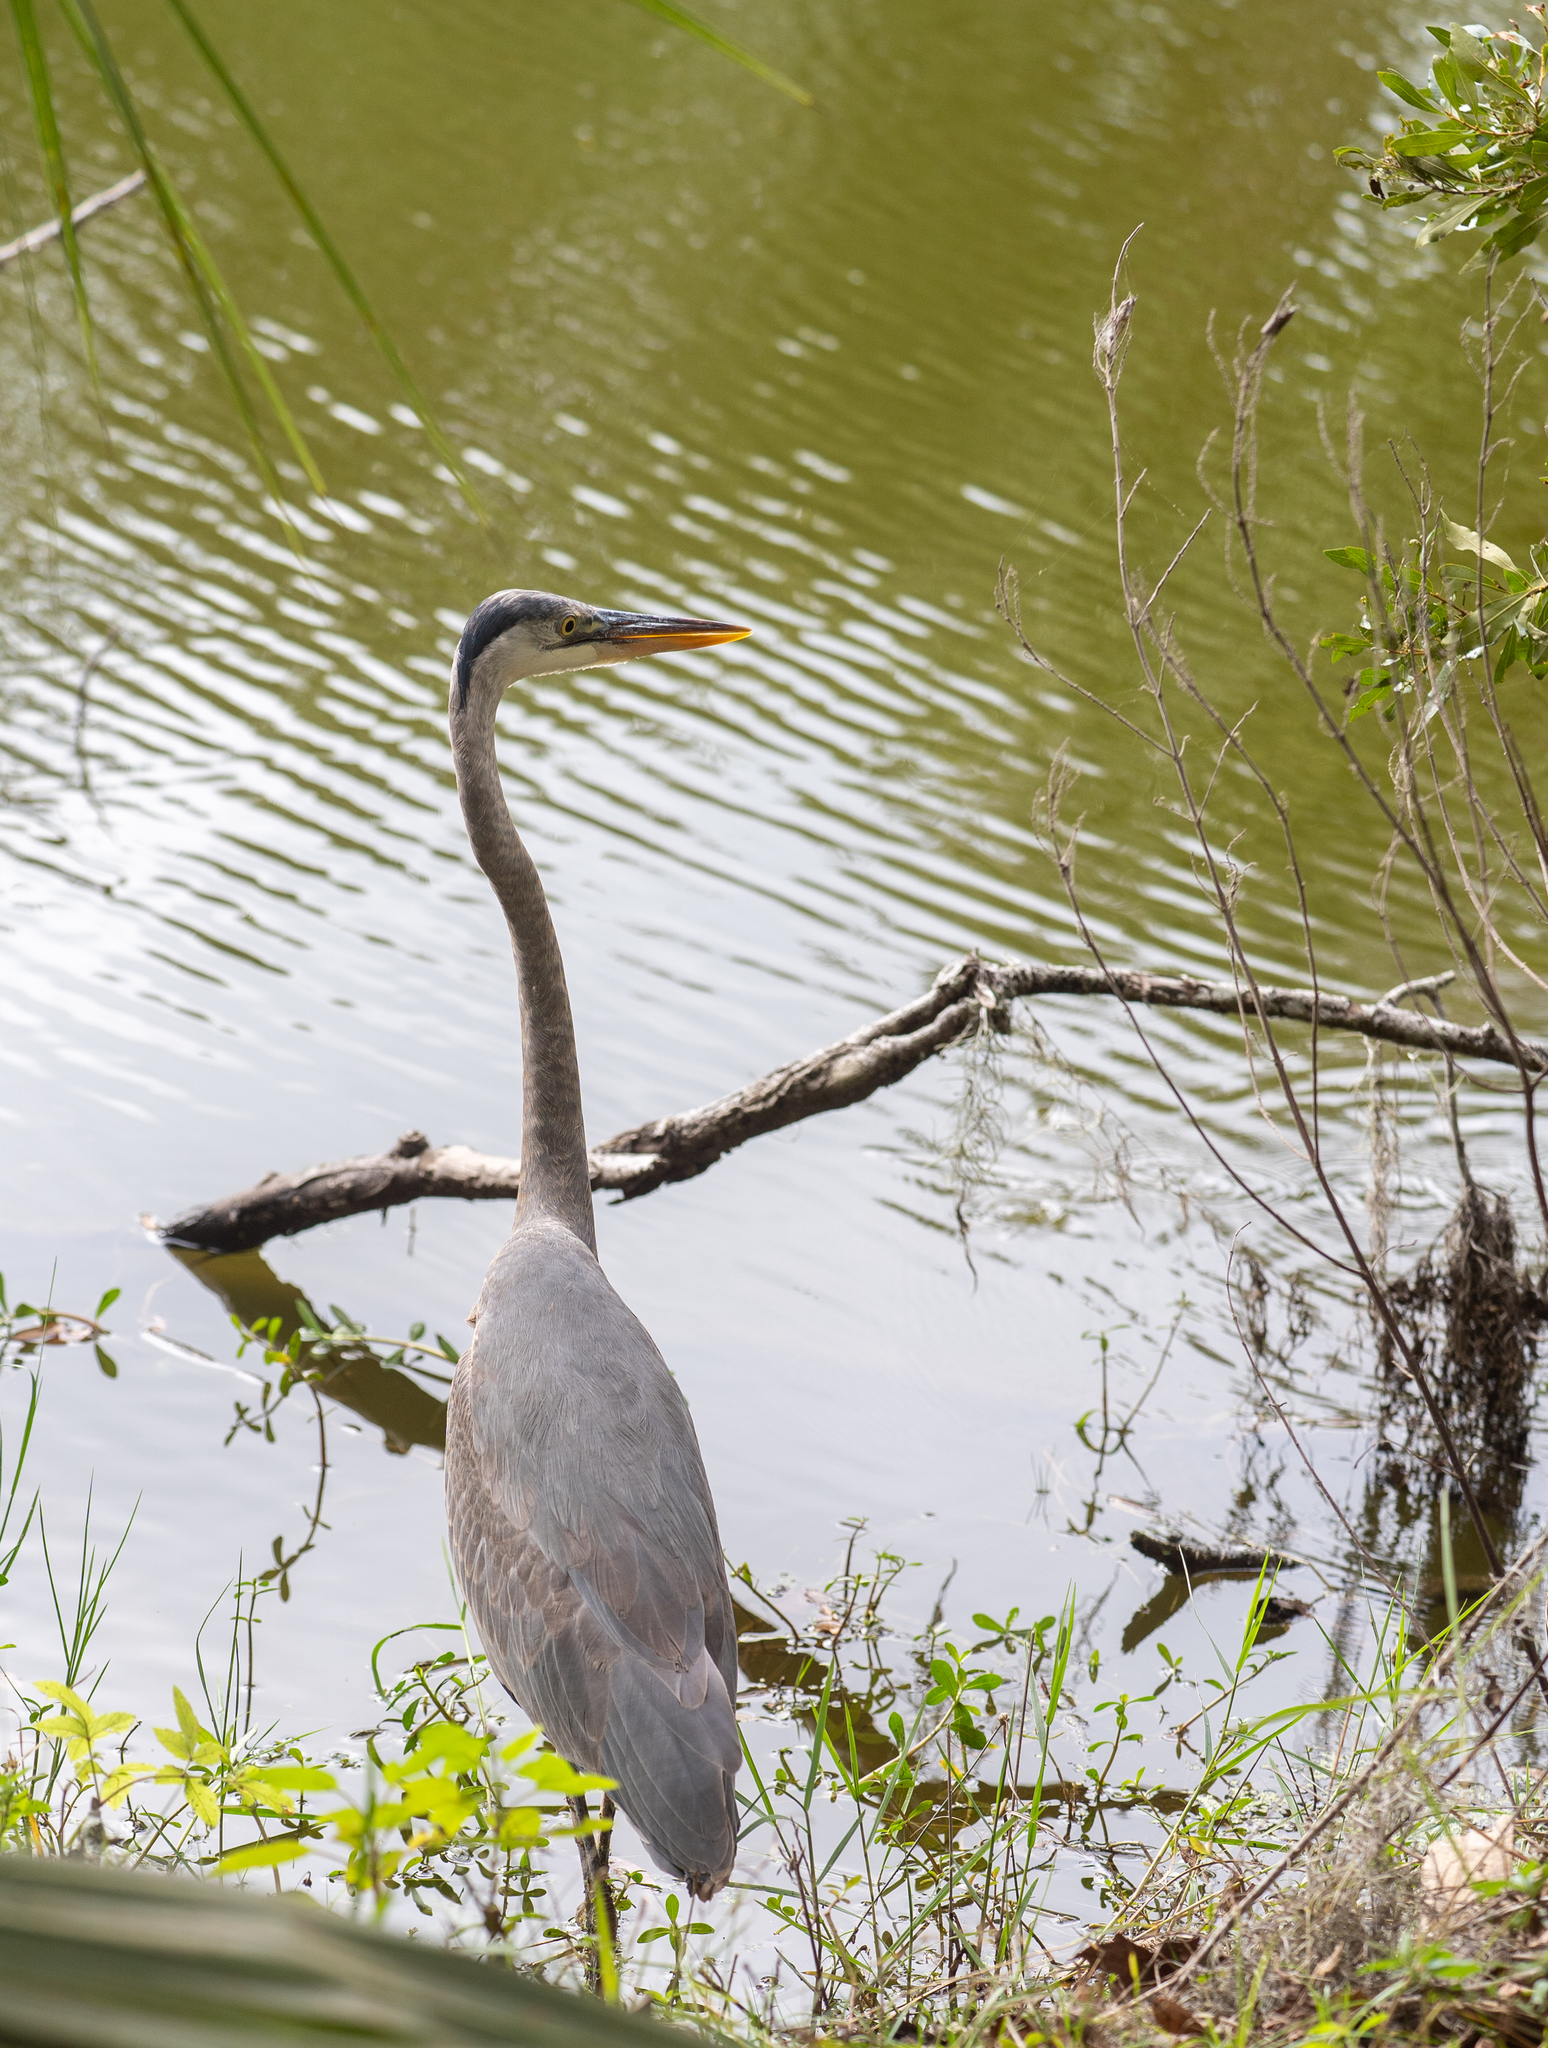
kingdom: Animalia
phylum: Chordata
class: Aves
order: Pelecaniformes
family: Ardeidae
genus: Ardea
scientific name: Ardea herodias
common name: Great blue heron
